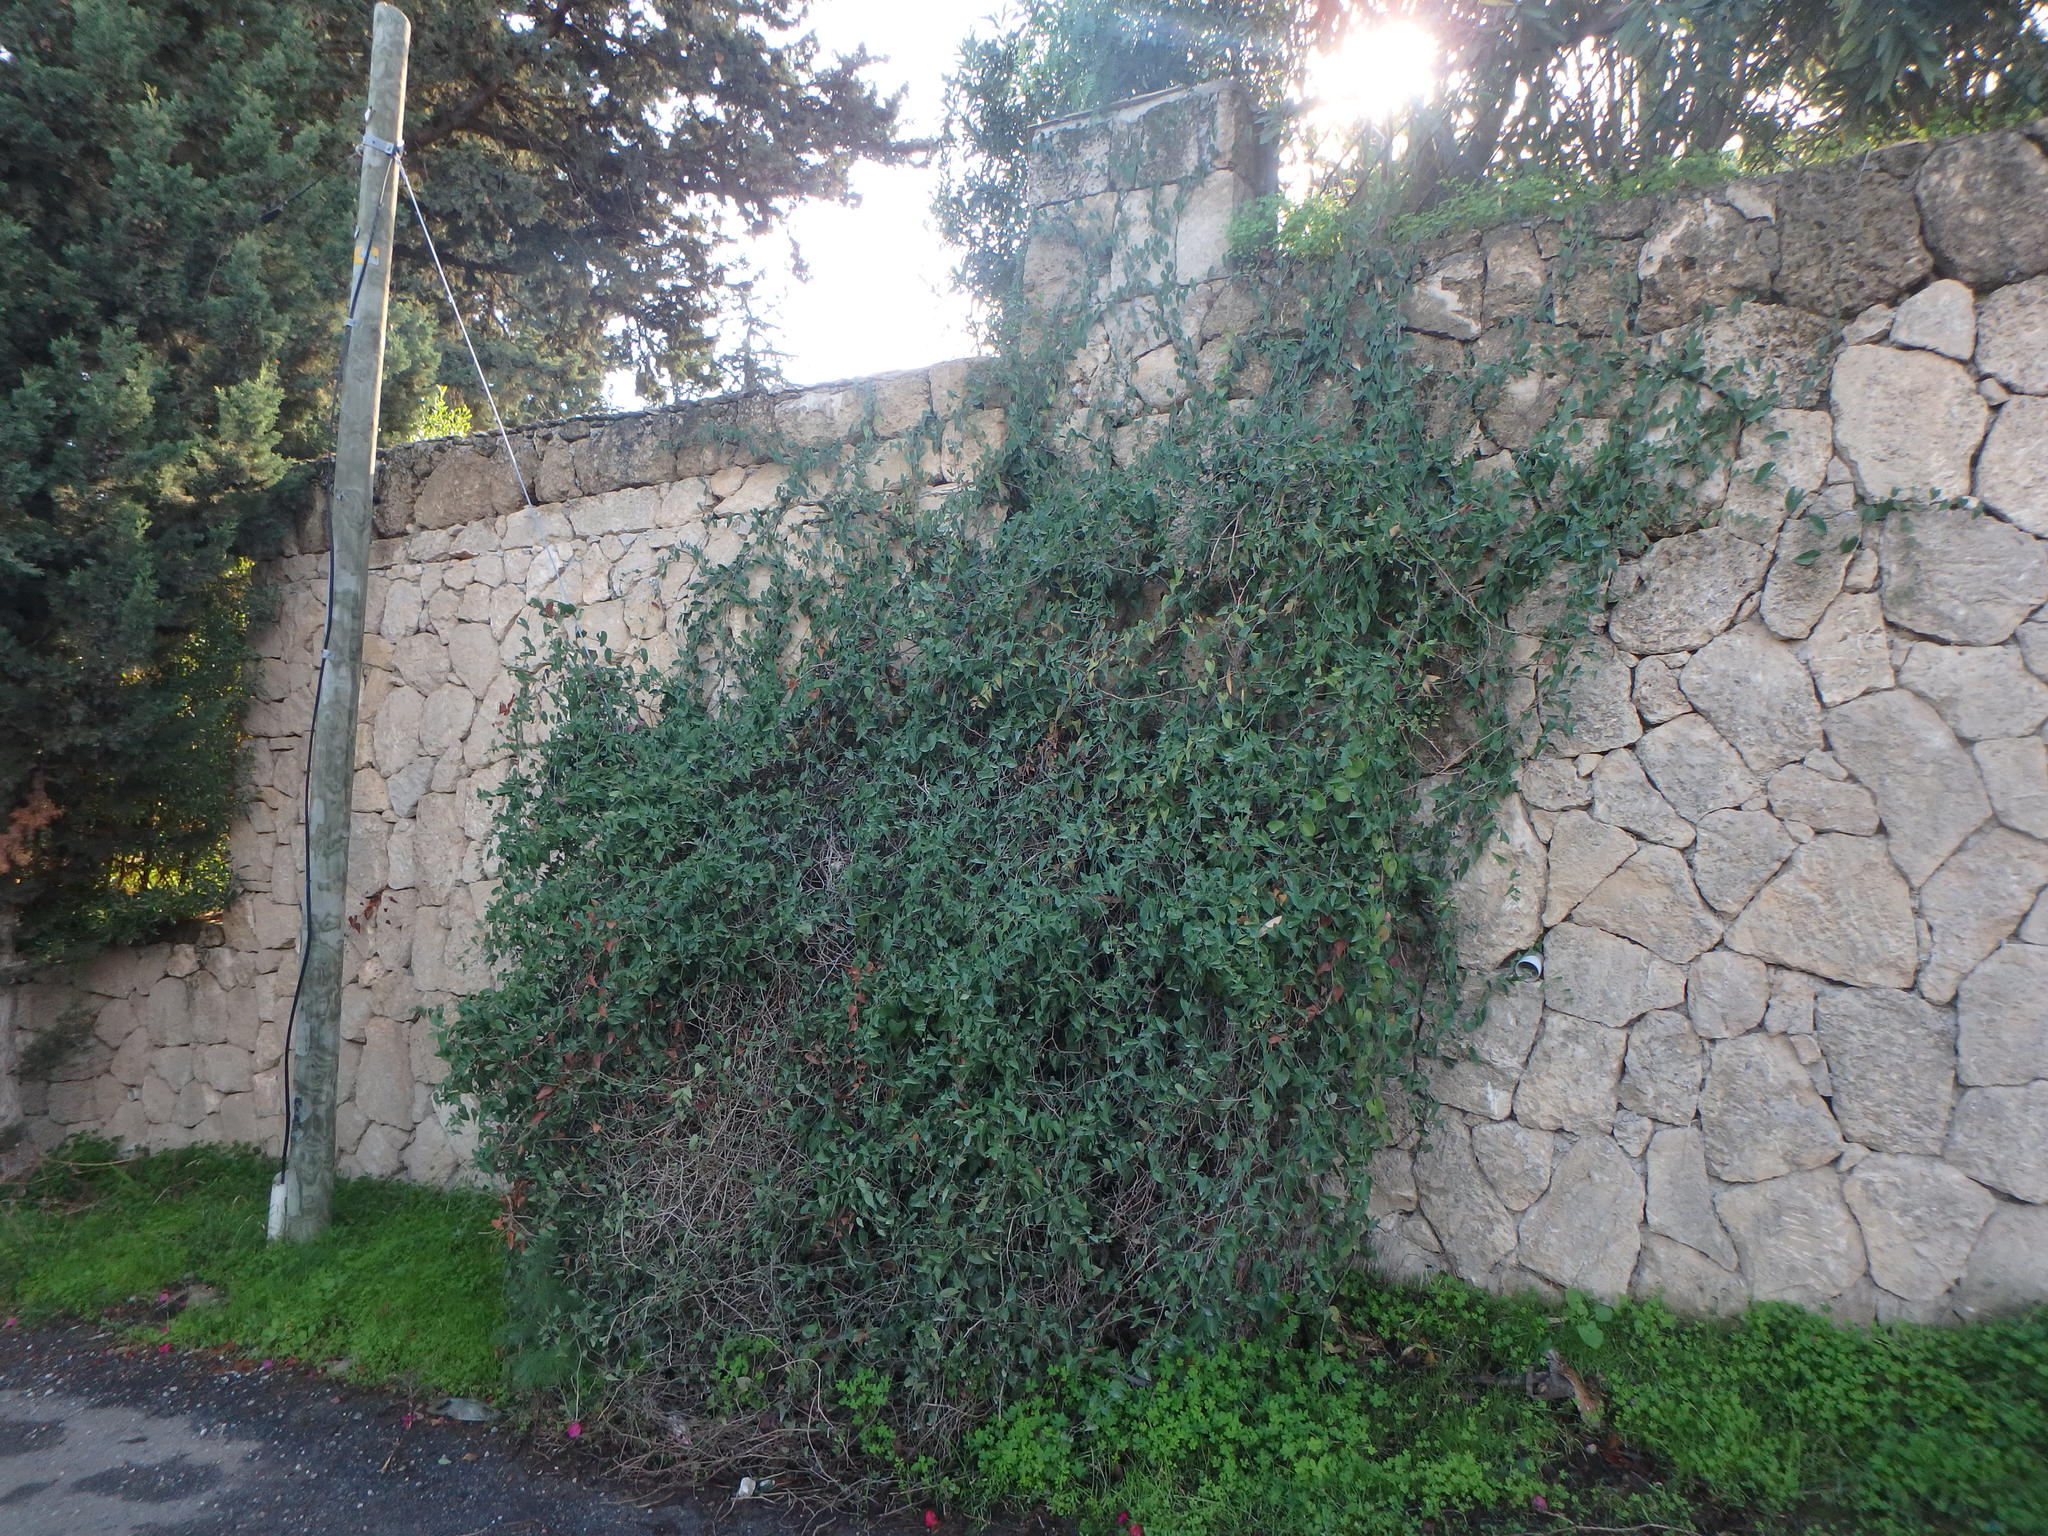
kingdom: Plantae
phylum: Tracheophyta
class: Liliopsida
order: Liliales
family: Smilacaceae
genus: Smilax
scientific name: Smilax aspera
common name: Common smilax
